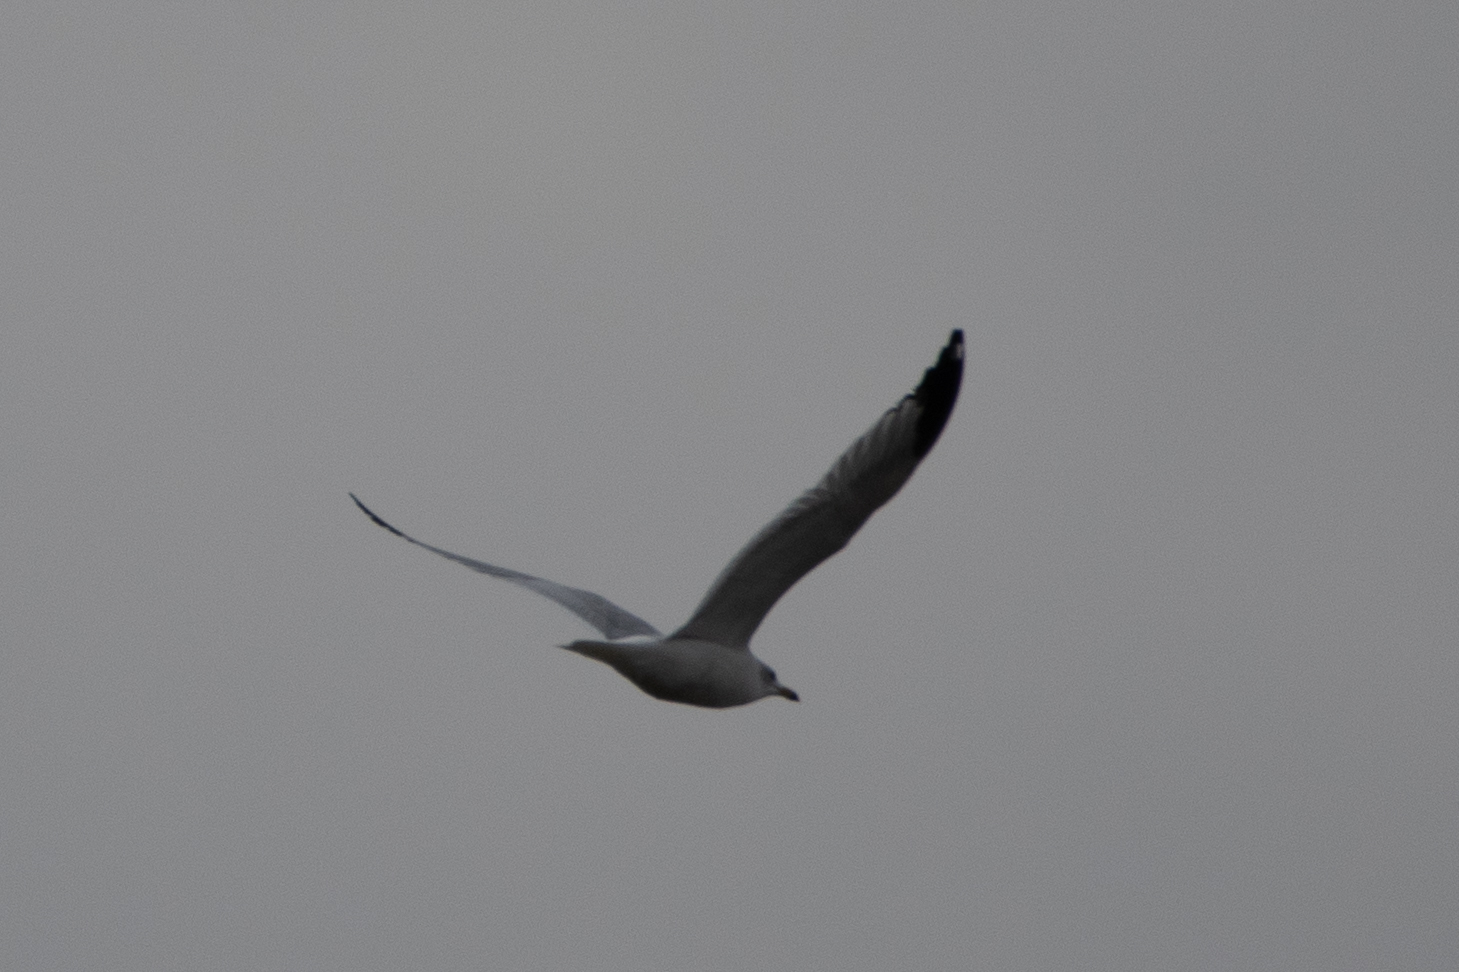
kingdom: Animalia
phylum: Chordata
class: Aves
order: Charadriiformes
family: Laridae
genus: Larus
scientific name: Larus
